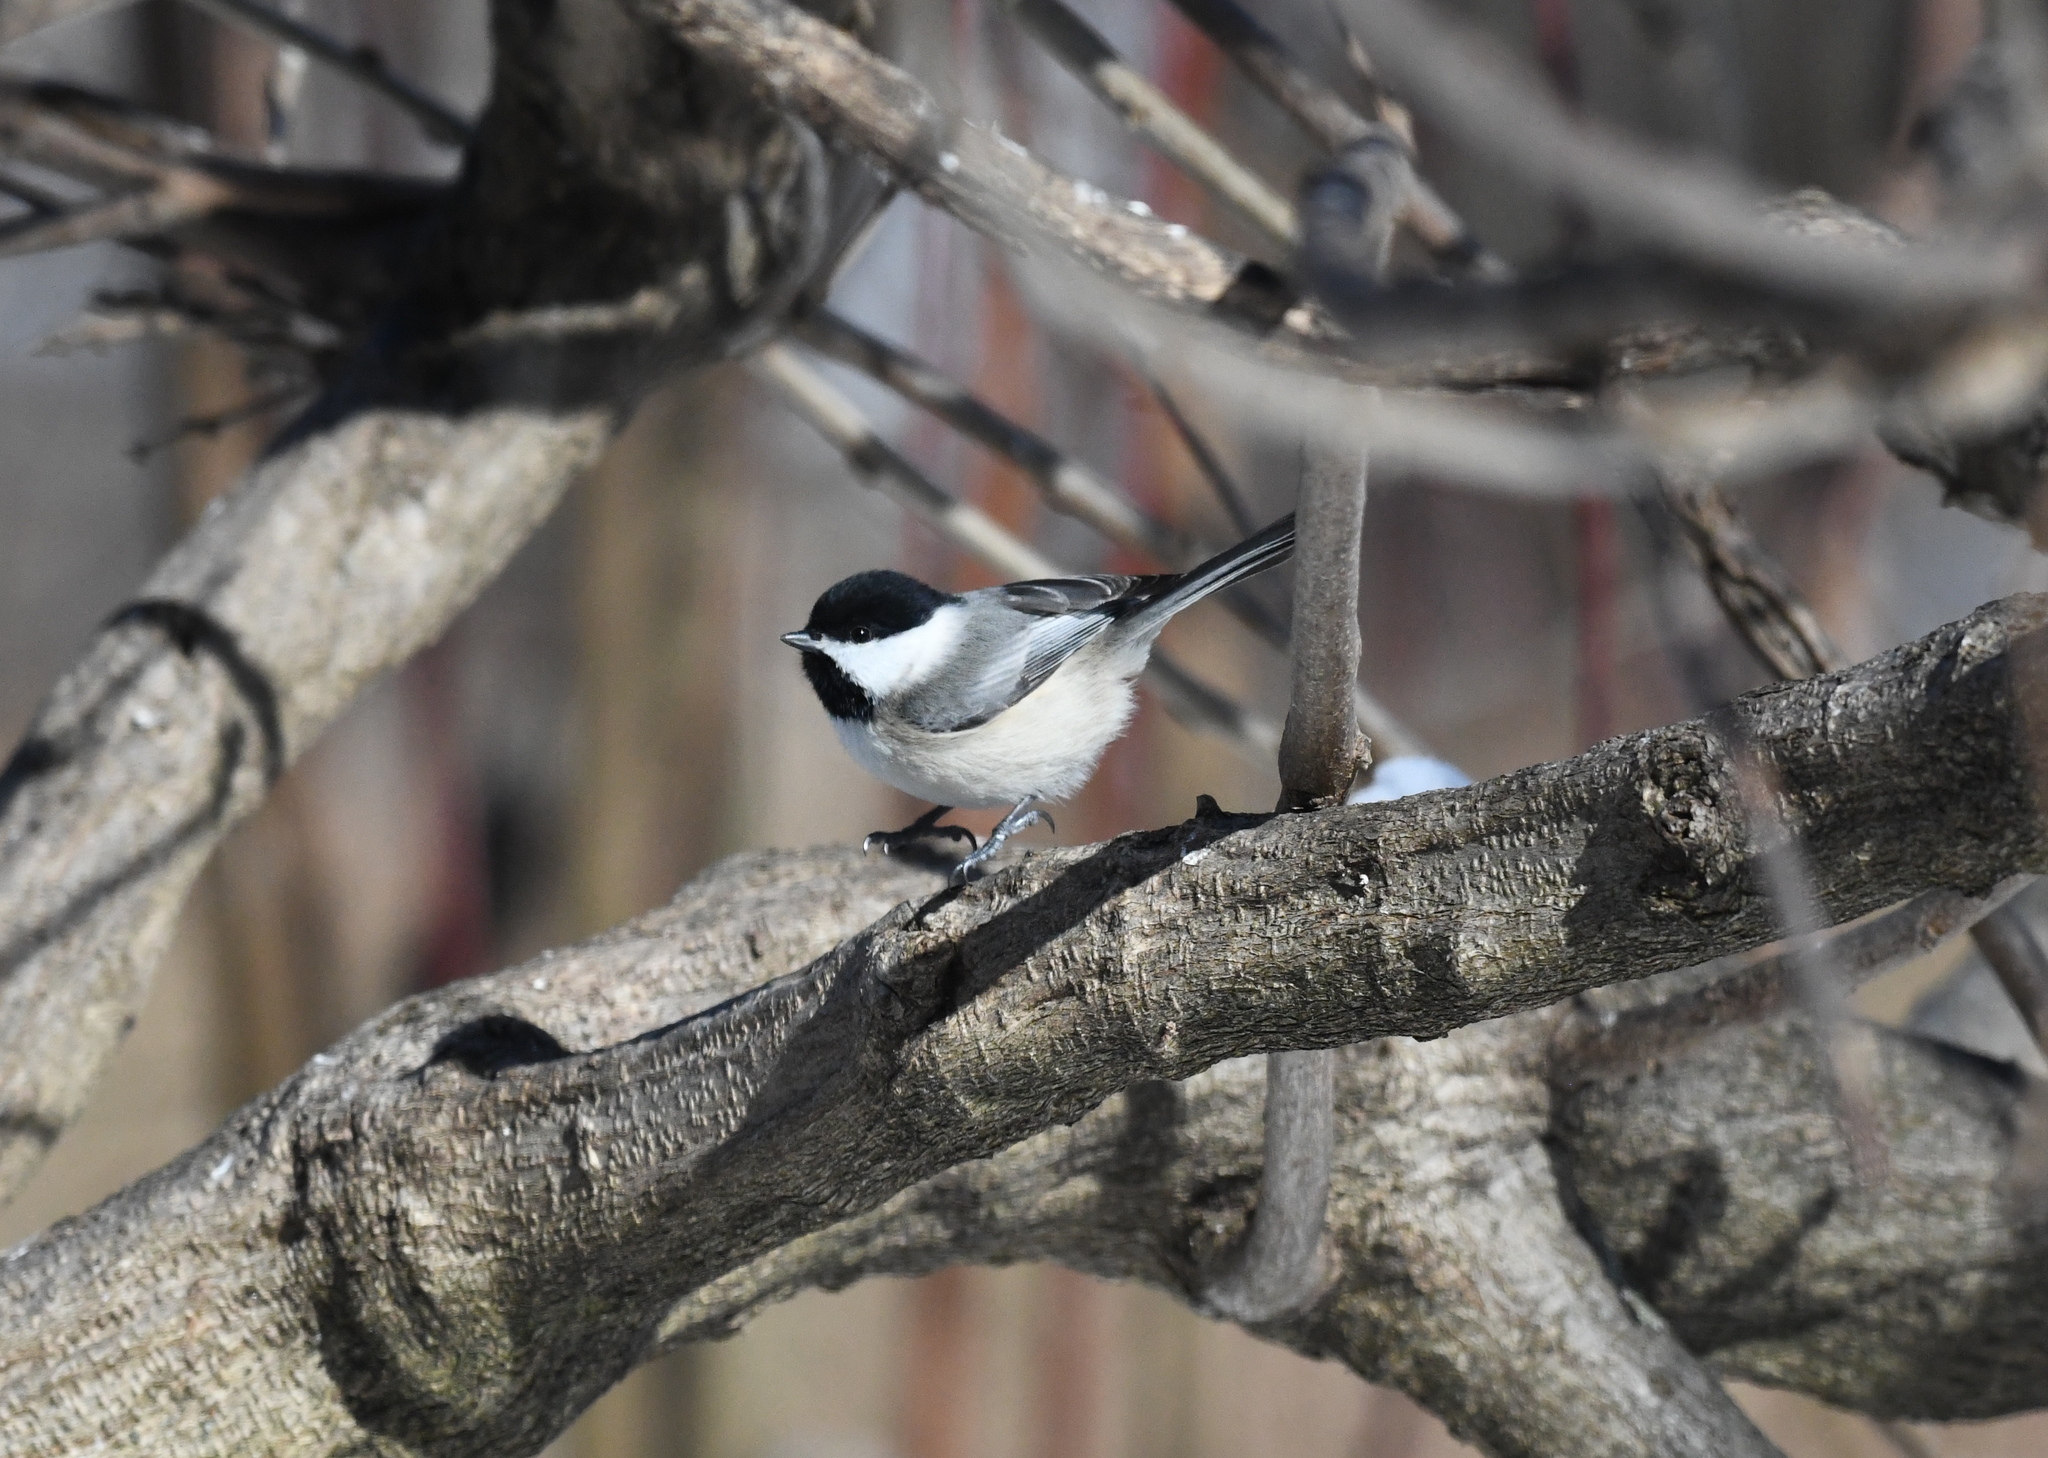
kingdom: Animalia
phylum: Chordata
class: Aves
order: Passeriformes
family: Paridae
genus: Poecile
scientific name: Poecile carolinensis
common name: Carolina chickadee
